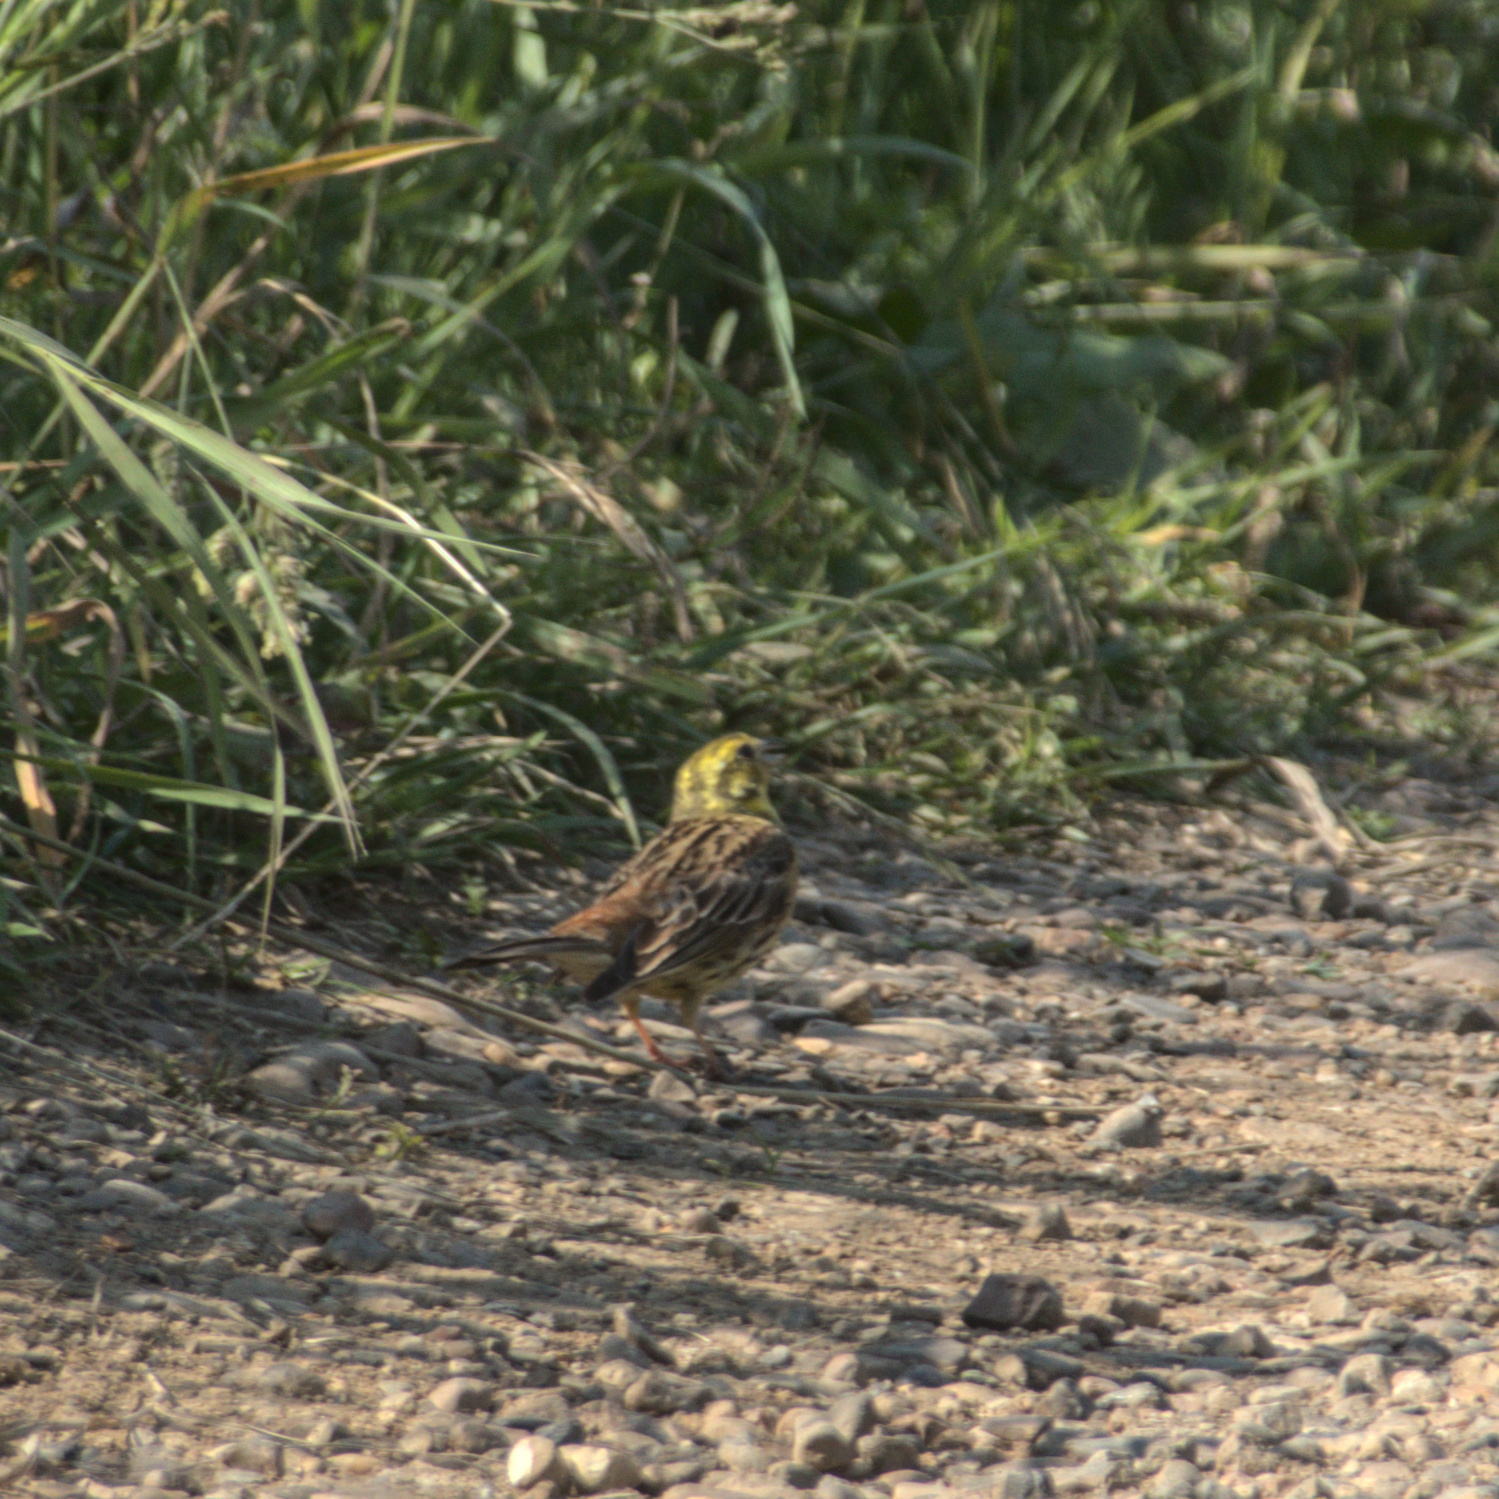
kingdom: Animalia
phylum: Chordata
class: Aves
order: Passeriformes
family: Emberizidae
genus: Emberiza
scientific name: Emberiza citrinella
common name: Yellowhammer
